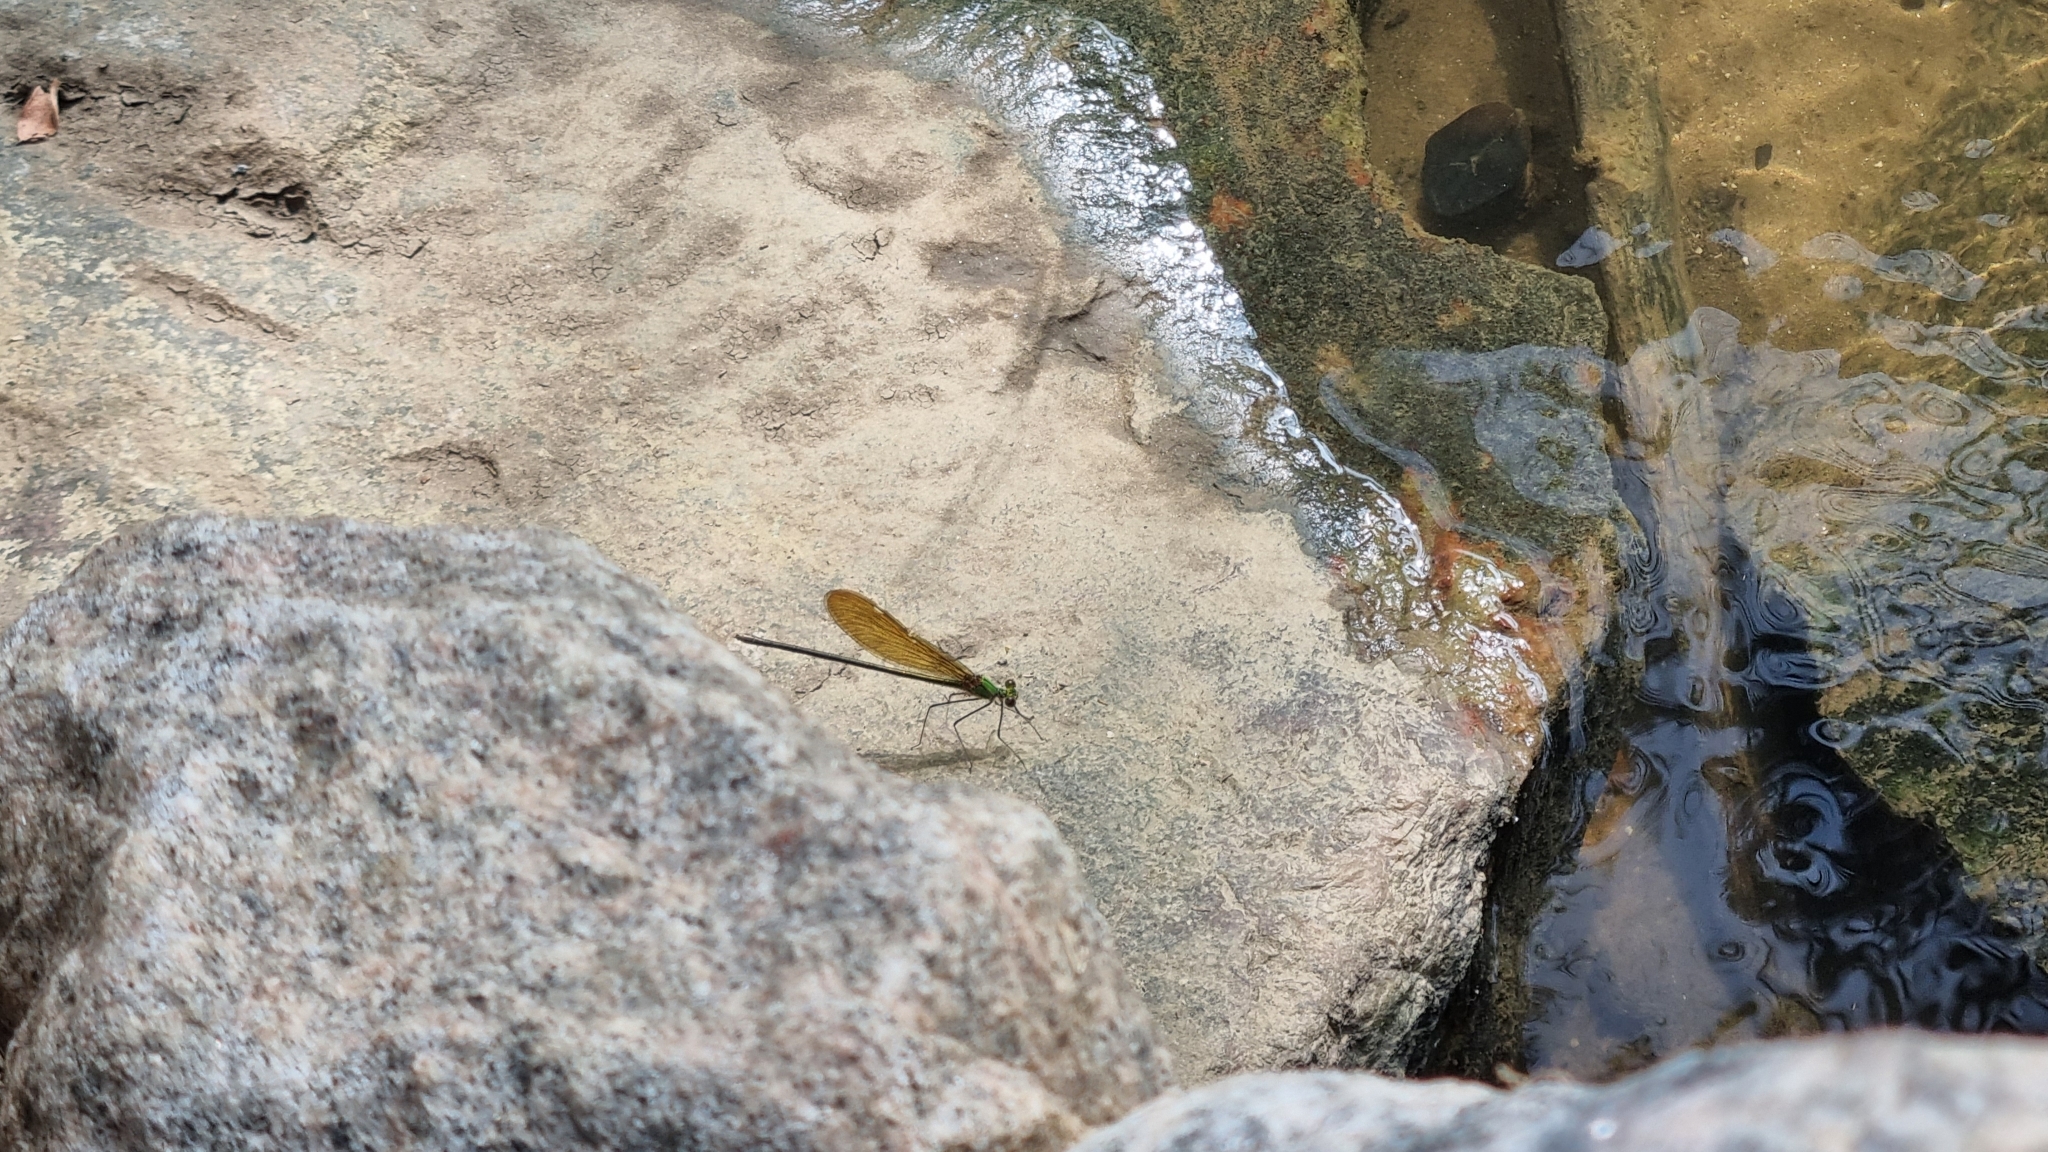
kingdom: Animalia
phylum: Arthropoda
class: Insecta
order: Odonata
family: Calopterygidae
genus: Neurobasis
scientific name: Neurobasis chinensis
